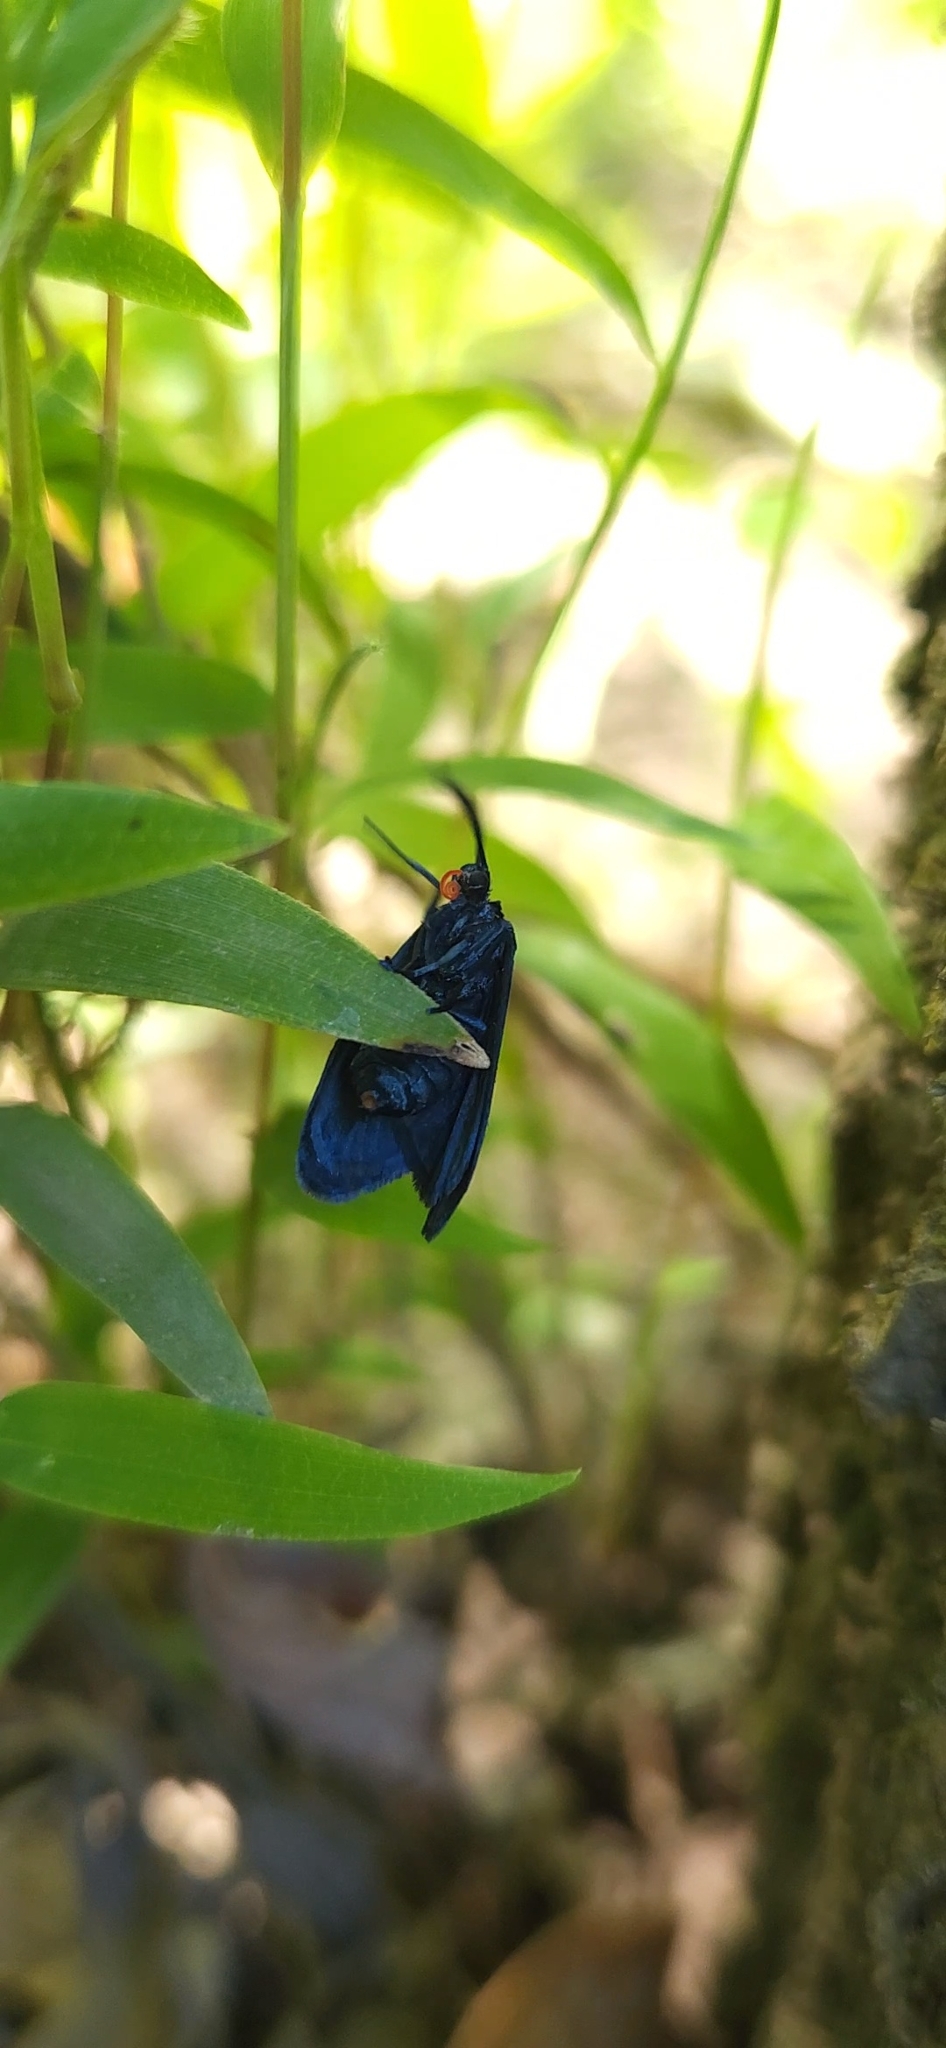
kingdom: Animalia
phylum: Arthropoda
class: Insecta
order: Lepidoptera
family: Zygaenidae
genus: Malamblia
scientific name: Malamblia
